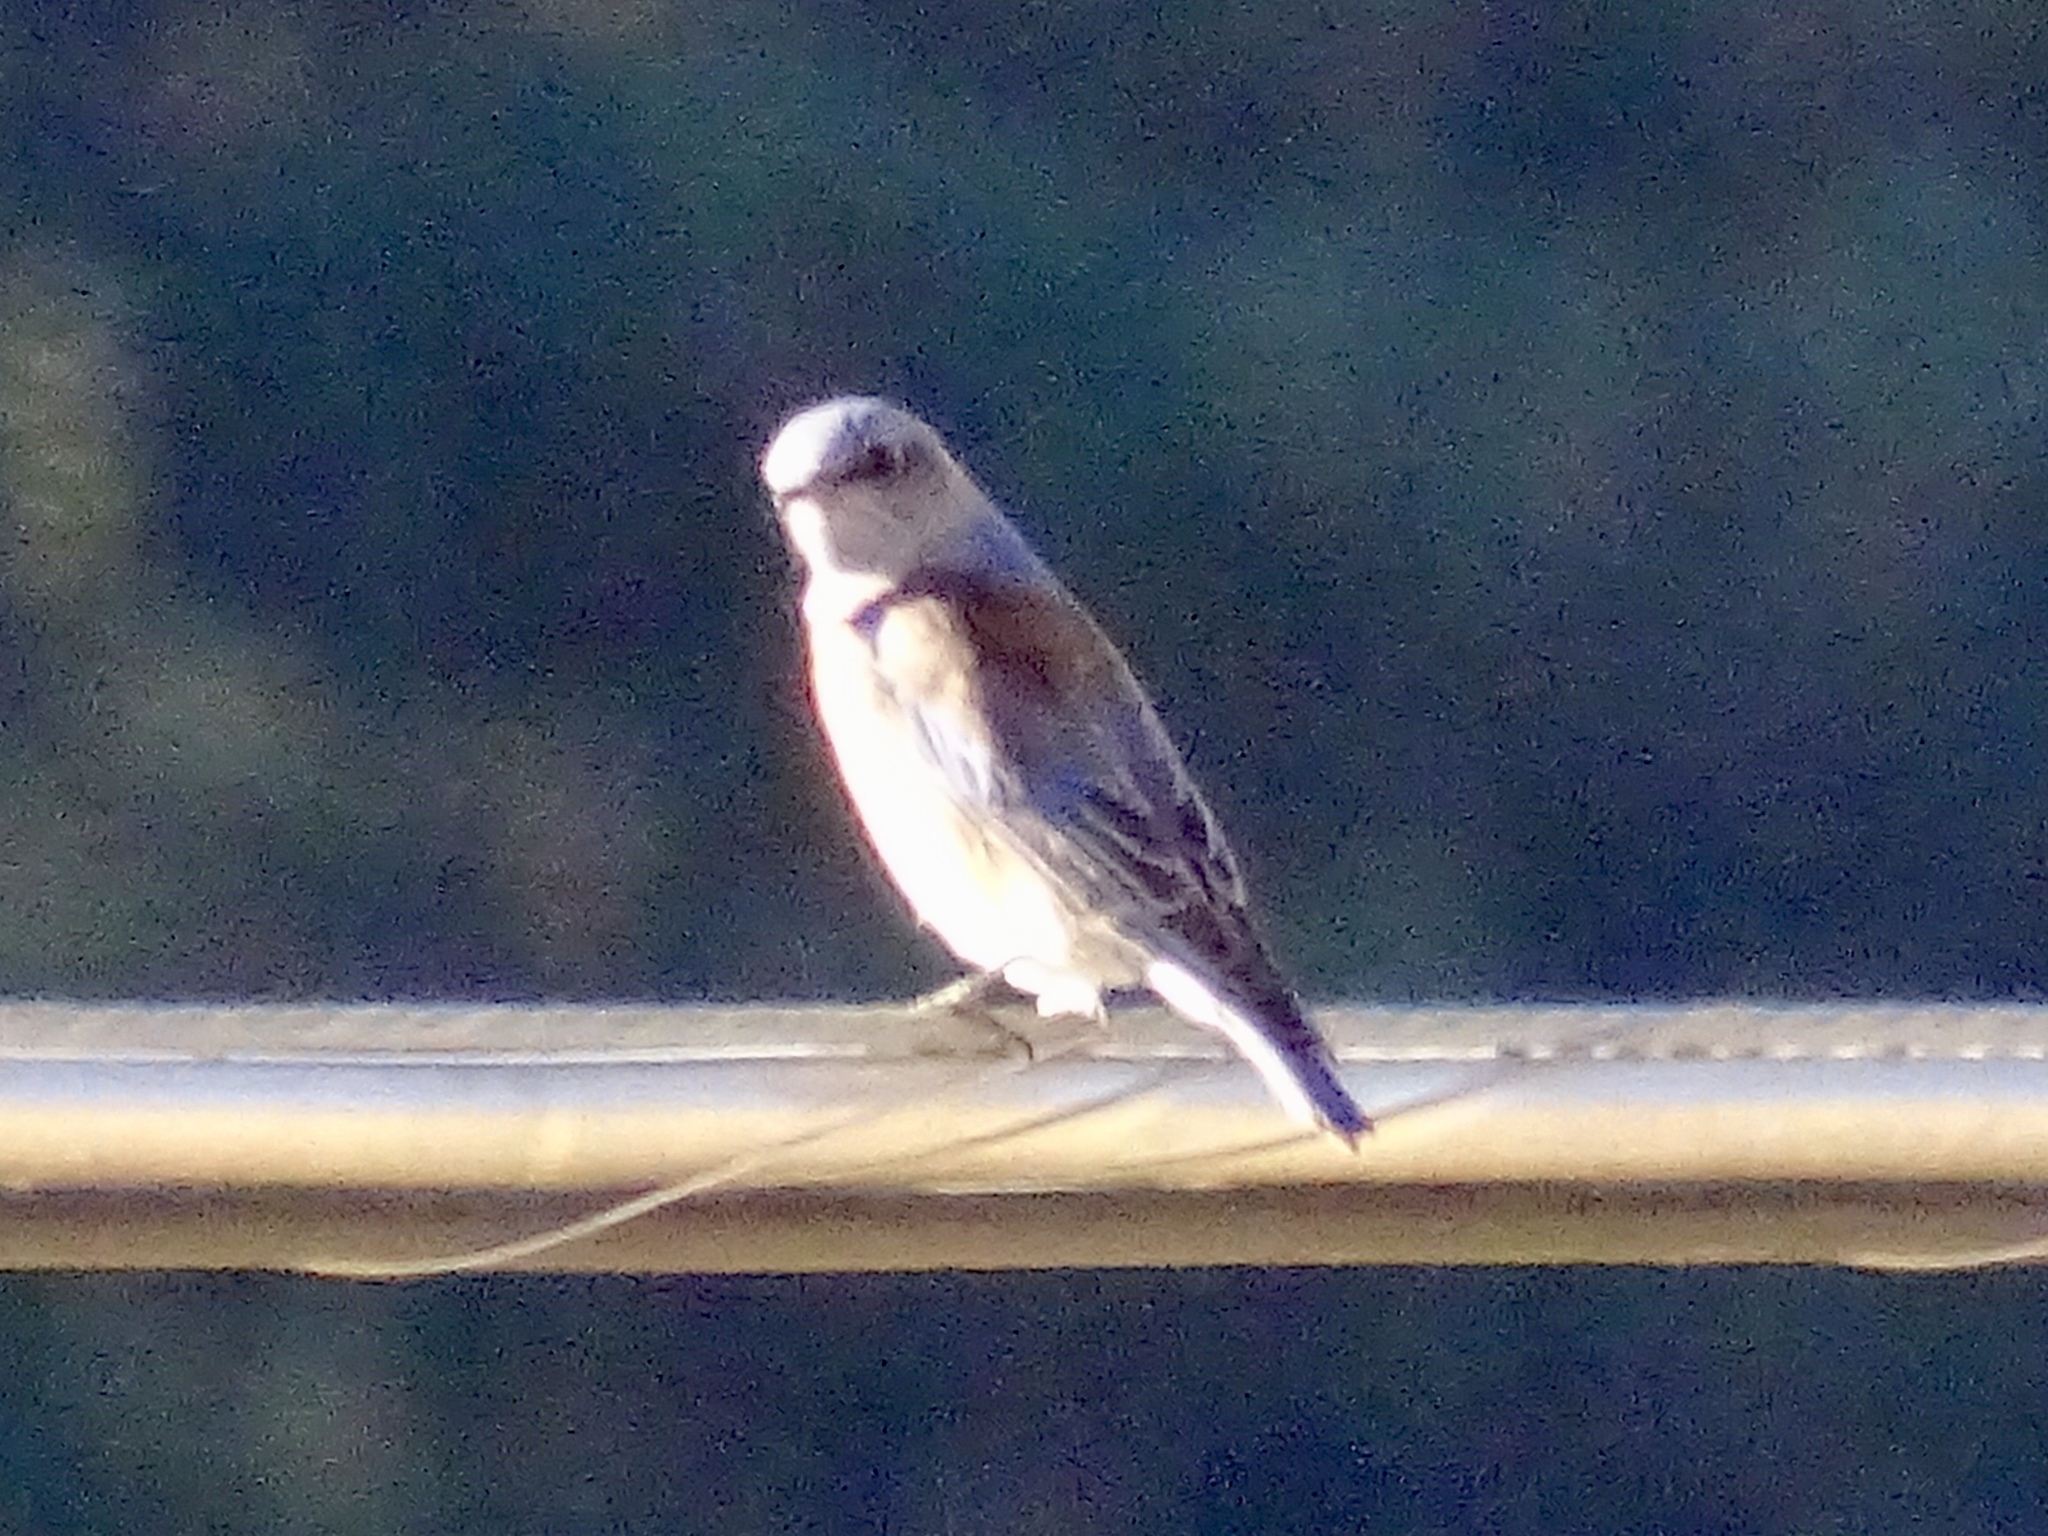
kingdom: Animalia
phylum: Chordata
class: Aves
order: Passeriformes
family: Turdidae
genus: Sialia
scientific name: Sialia mexicana
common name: Western bluebird
